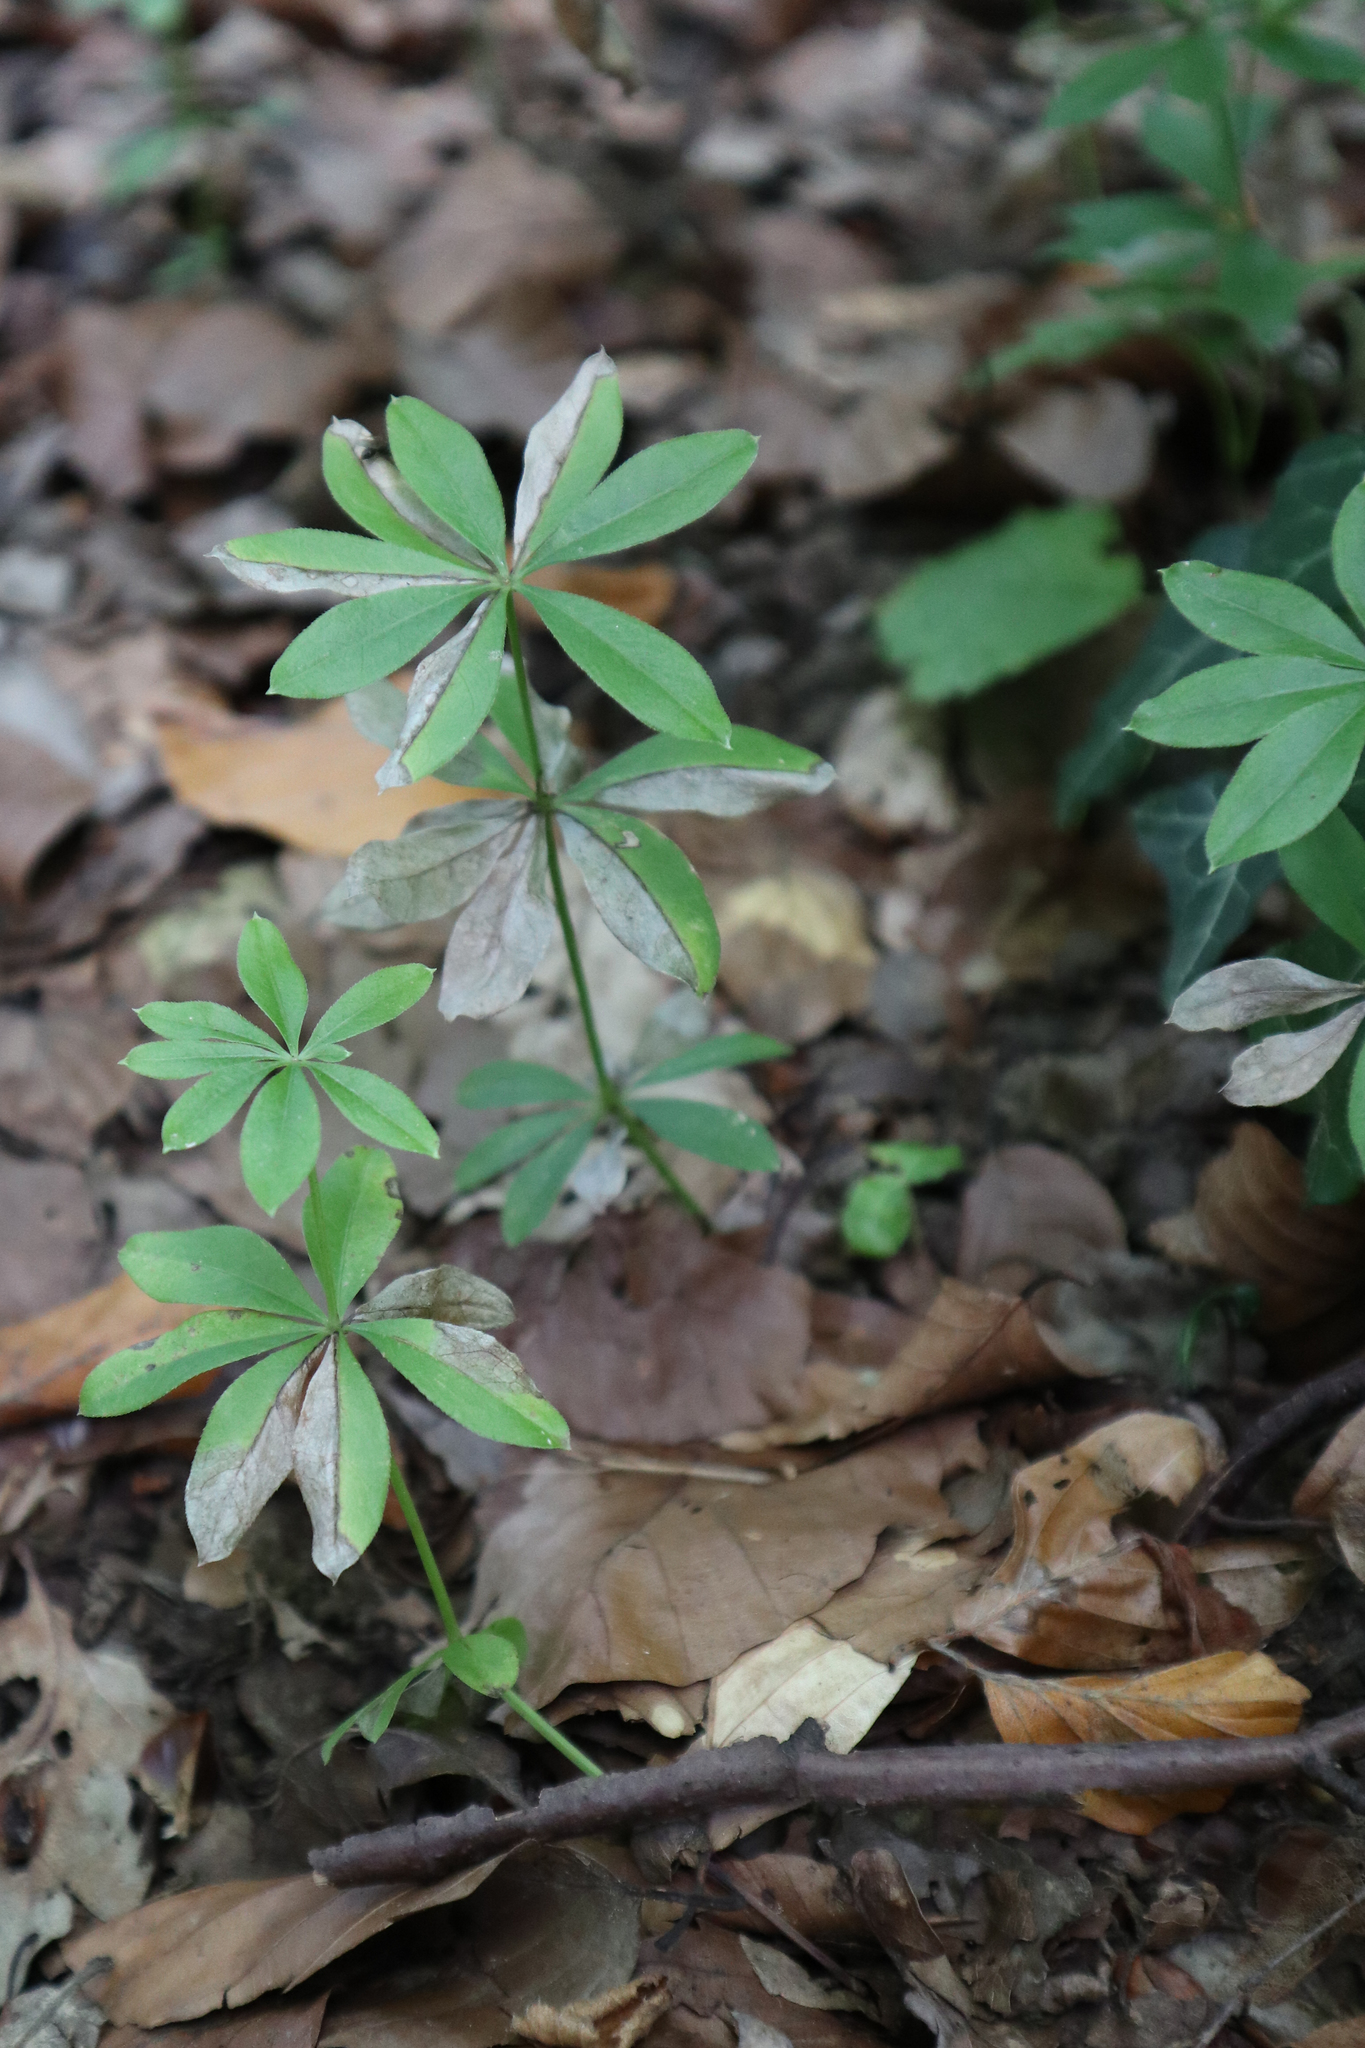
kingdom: Plantae
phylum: Tracheophyta
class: Magnoliopsida
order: Gentianales
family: Rubiaceae
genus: Galium
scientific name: Galium odoratum
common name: Sweet woodruff
